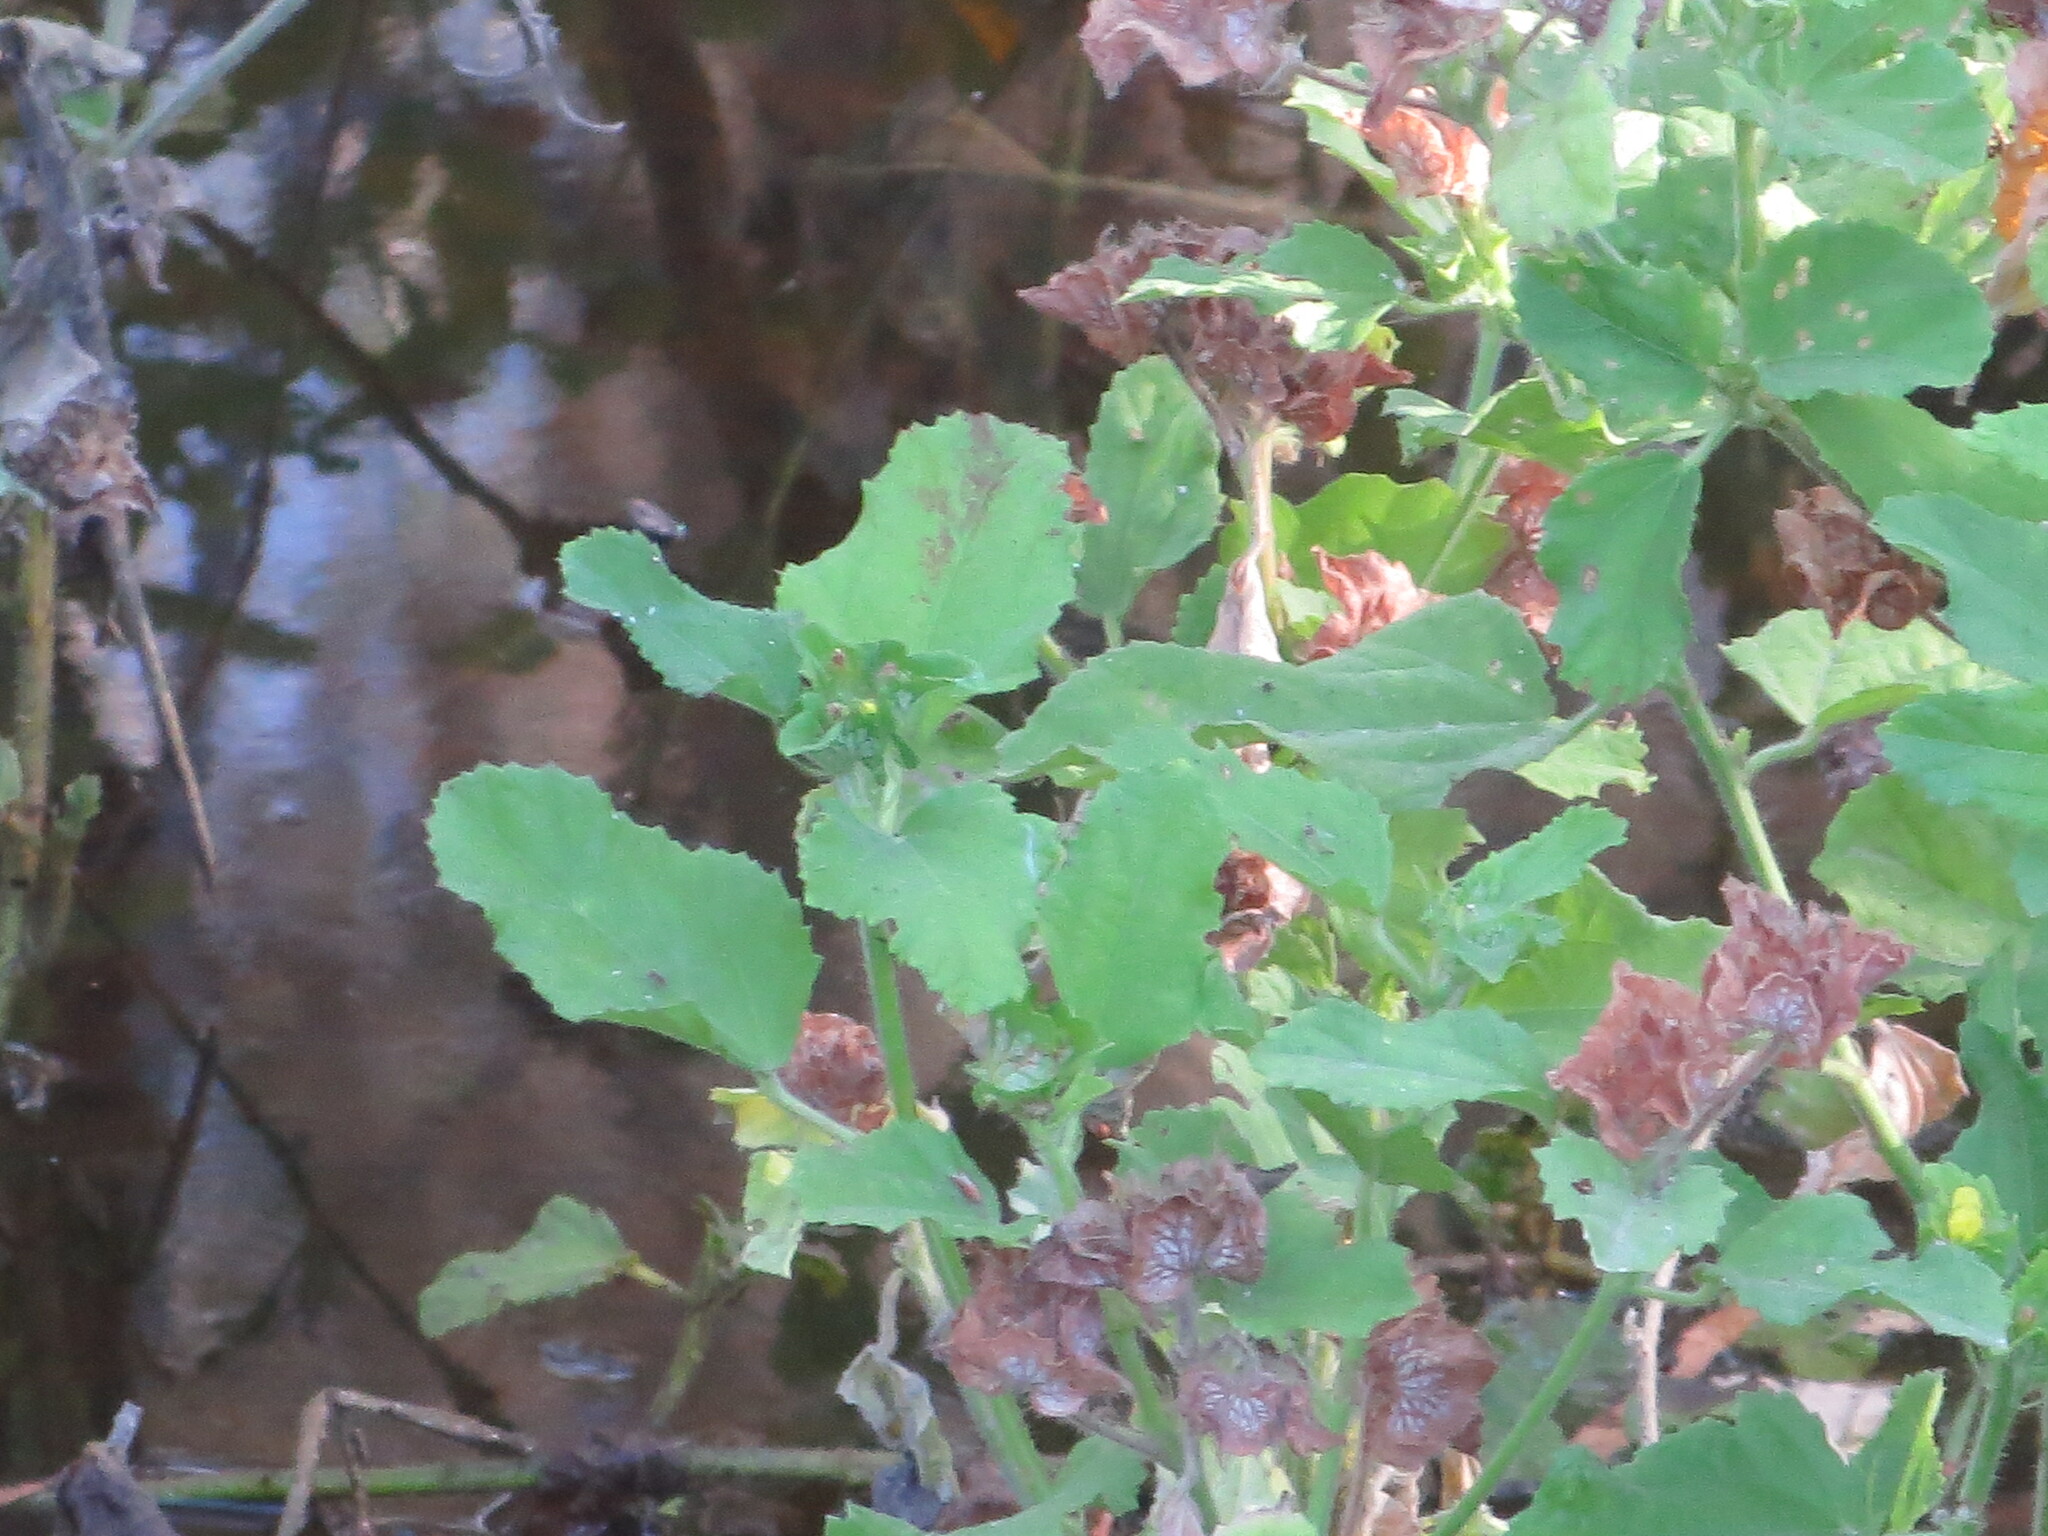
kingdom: Plantae
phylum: Tracheophyta
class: Magnoliopsida
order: Malvales
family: Malvaceae
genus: Malachra
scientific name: Malachra capitata
